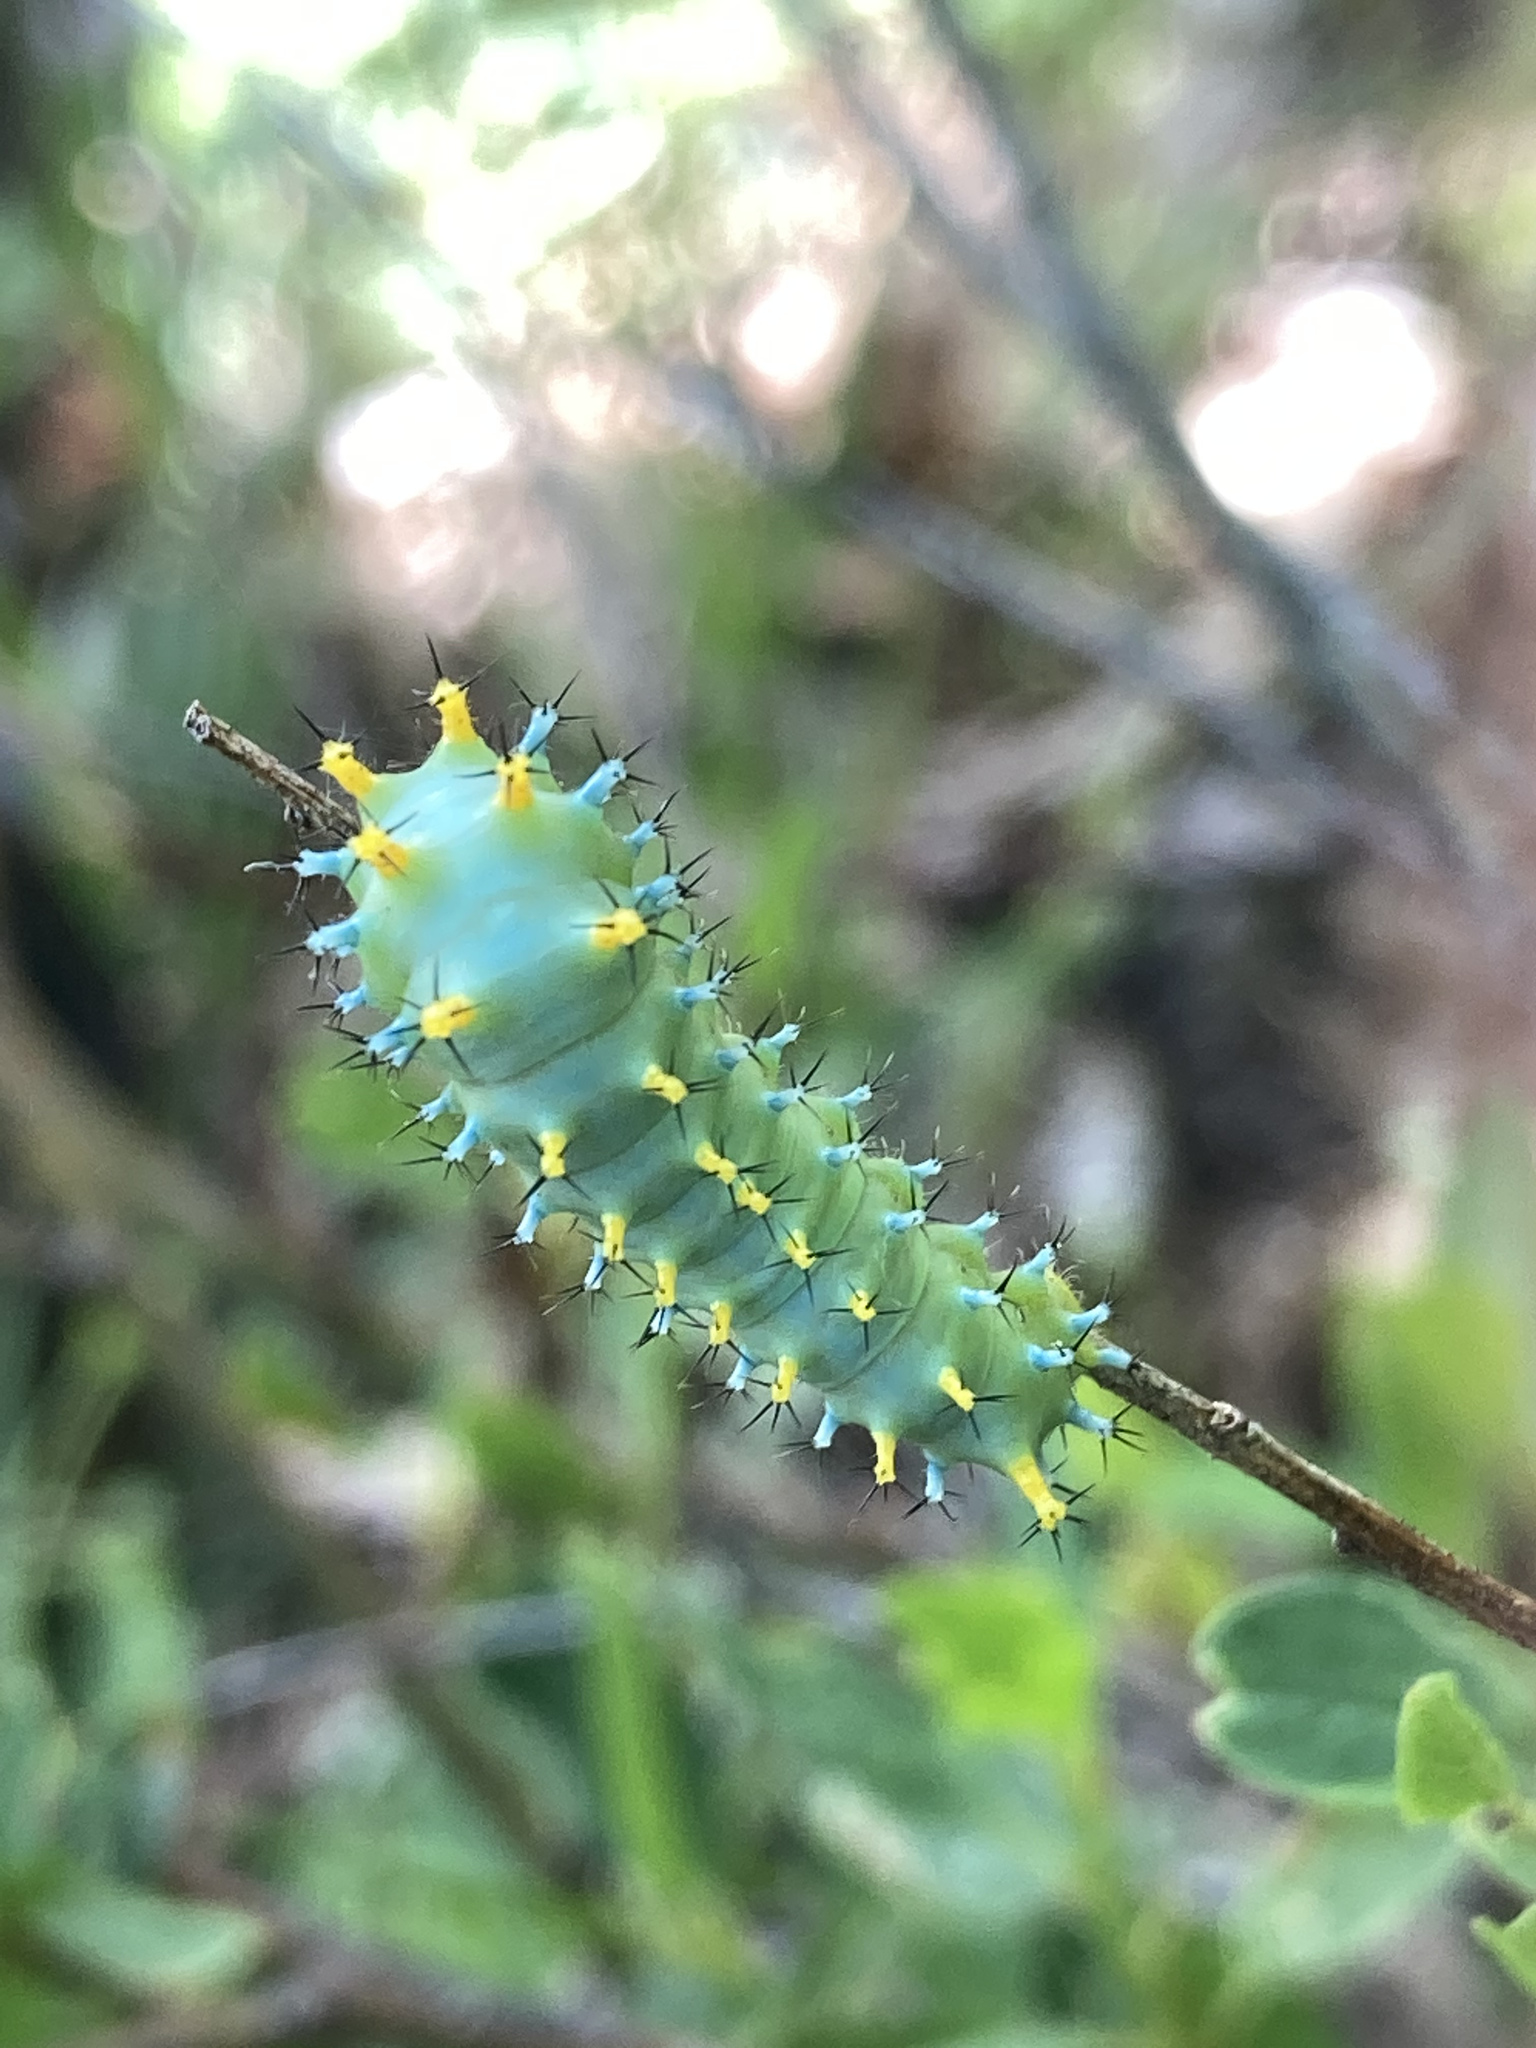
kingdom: Animalia
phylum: Arthropoda
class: Insecta
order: Lepidoptera
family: Saturniidae
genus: Hyalophora
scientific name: Hyalophora euryalus
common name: Ceanothus silkmoth
